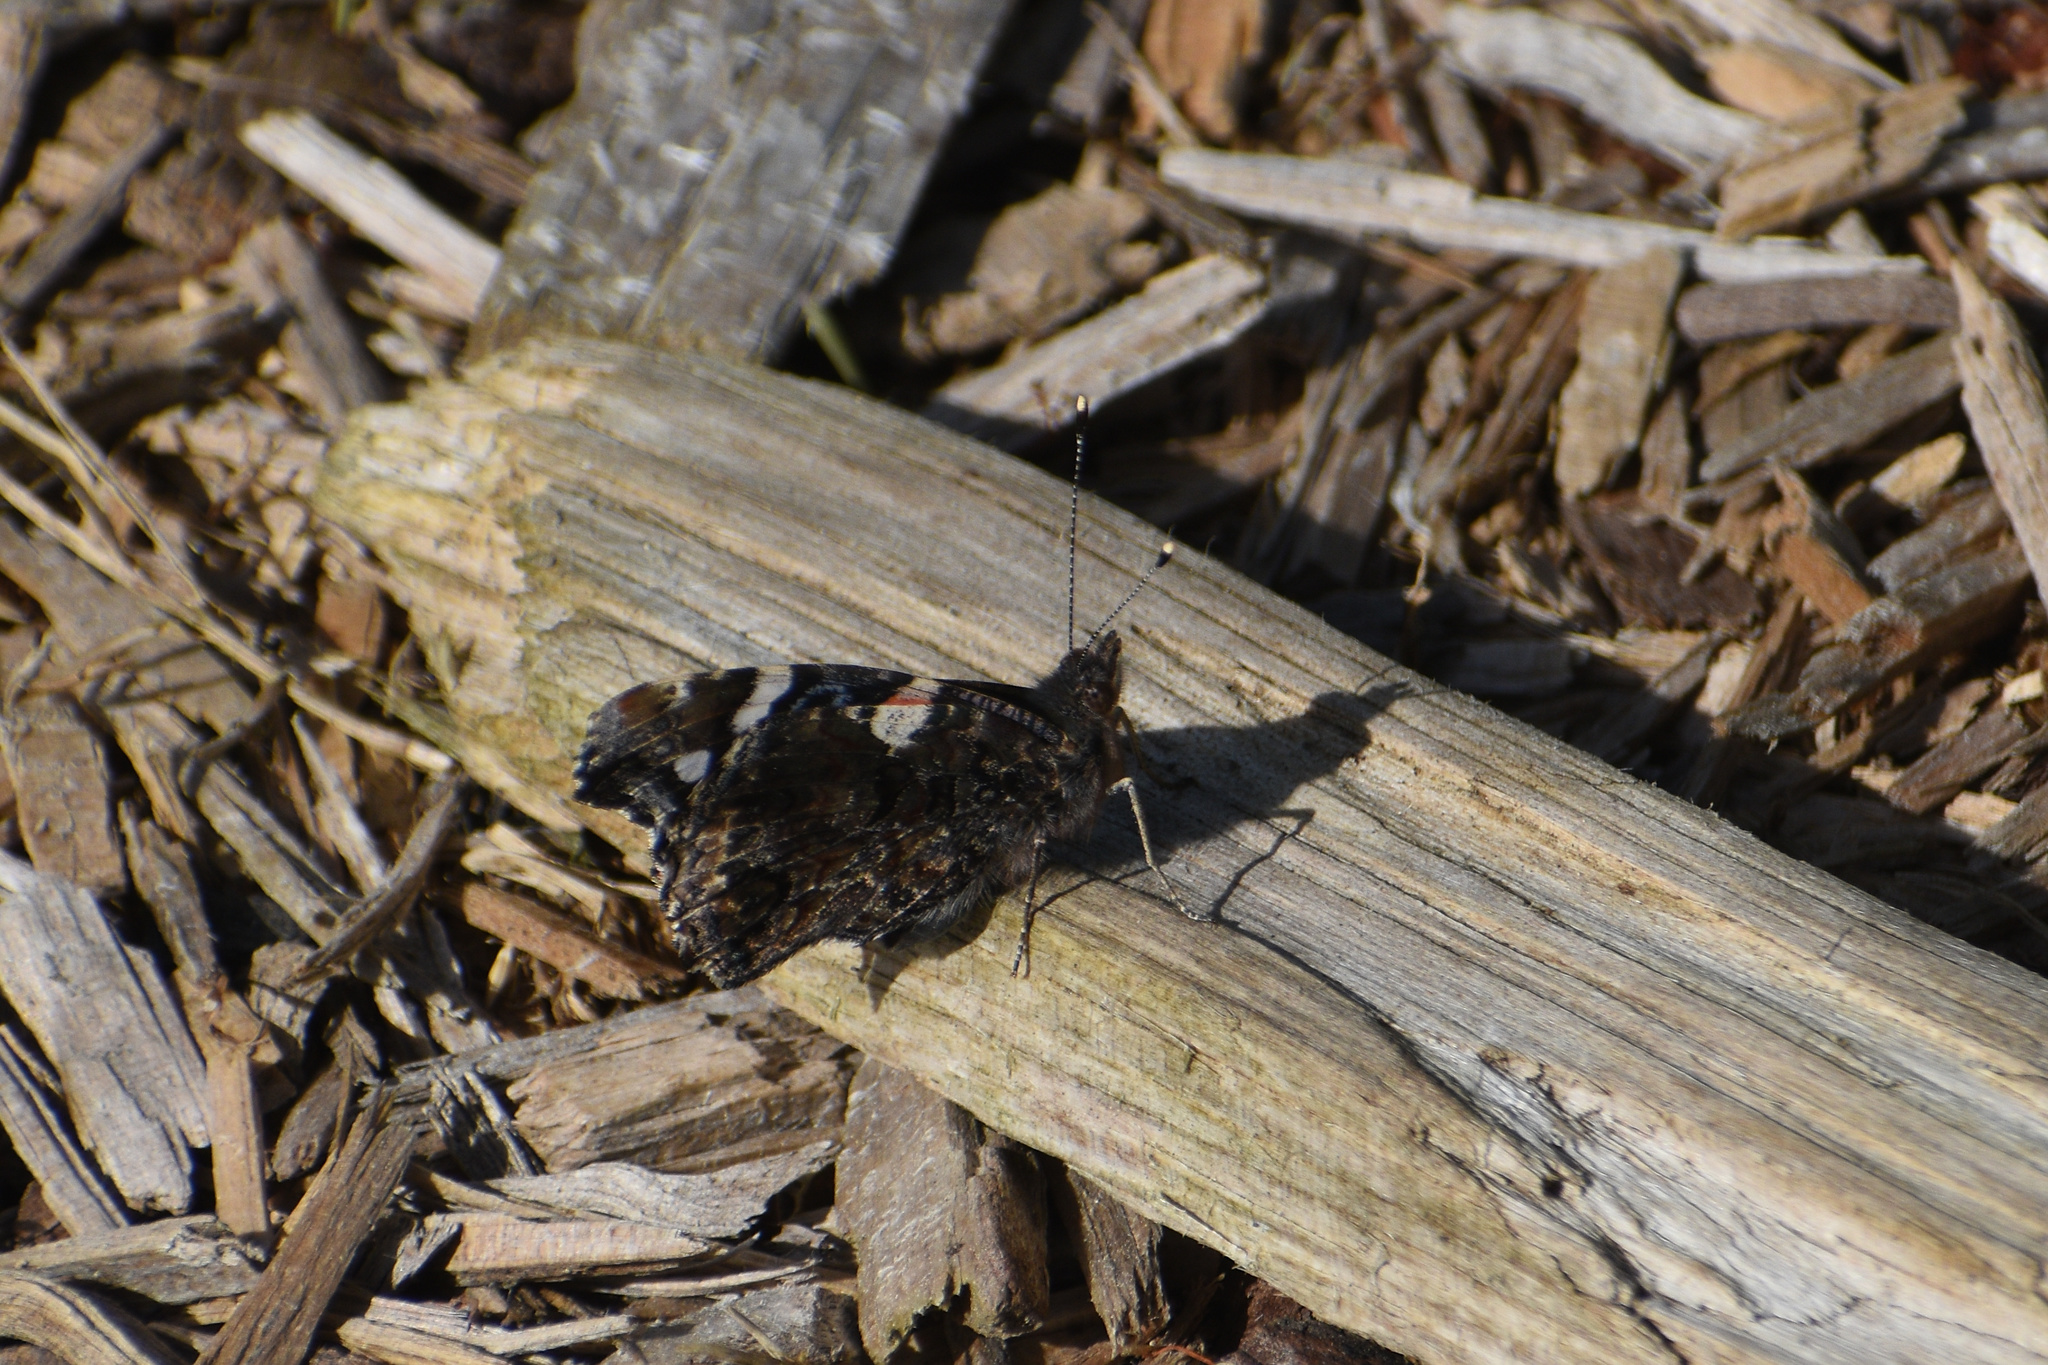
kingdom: Animalia
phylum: Arthropoda
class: Insecta
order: Lepidoptera
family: Nymphalidae
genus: Vanessa
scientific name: Vanessa atalanta
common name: Red admiral
